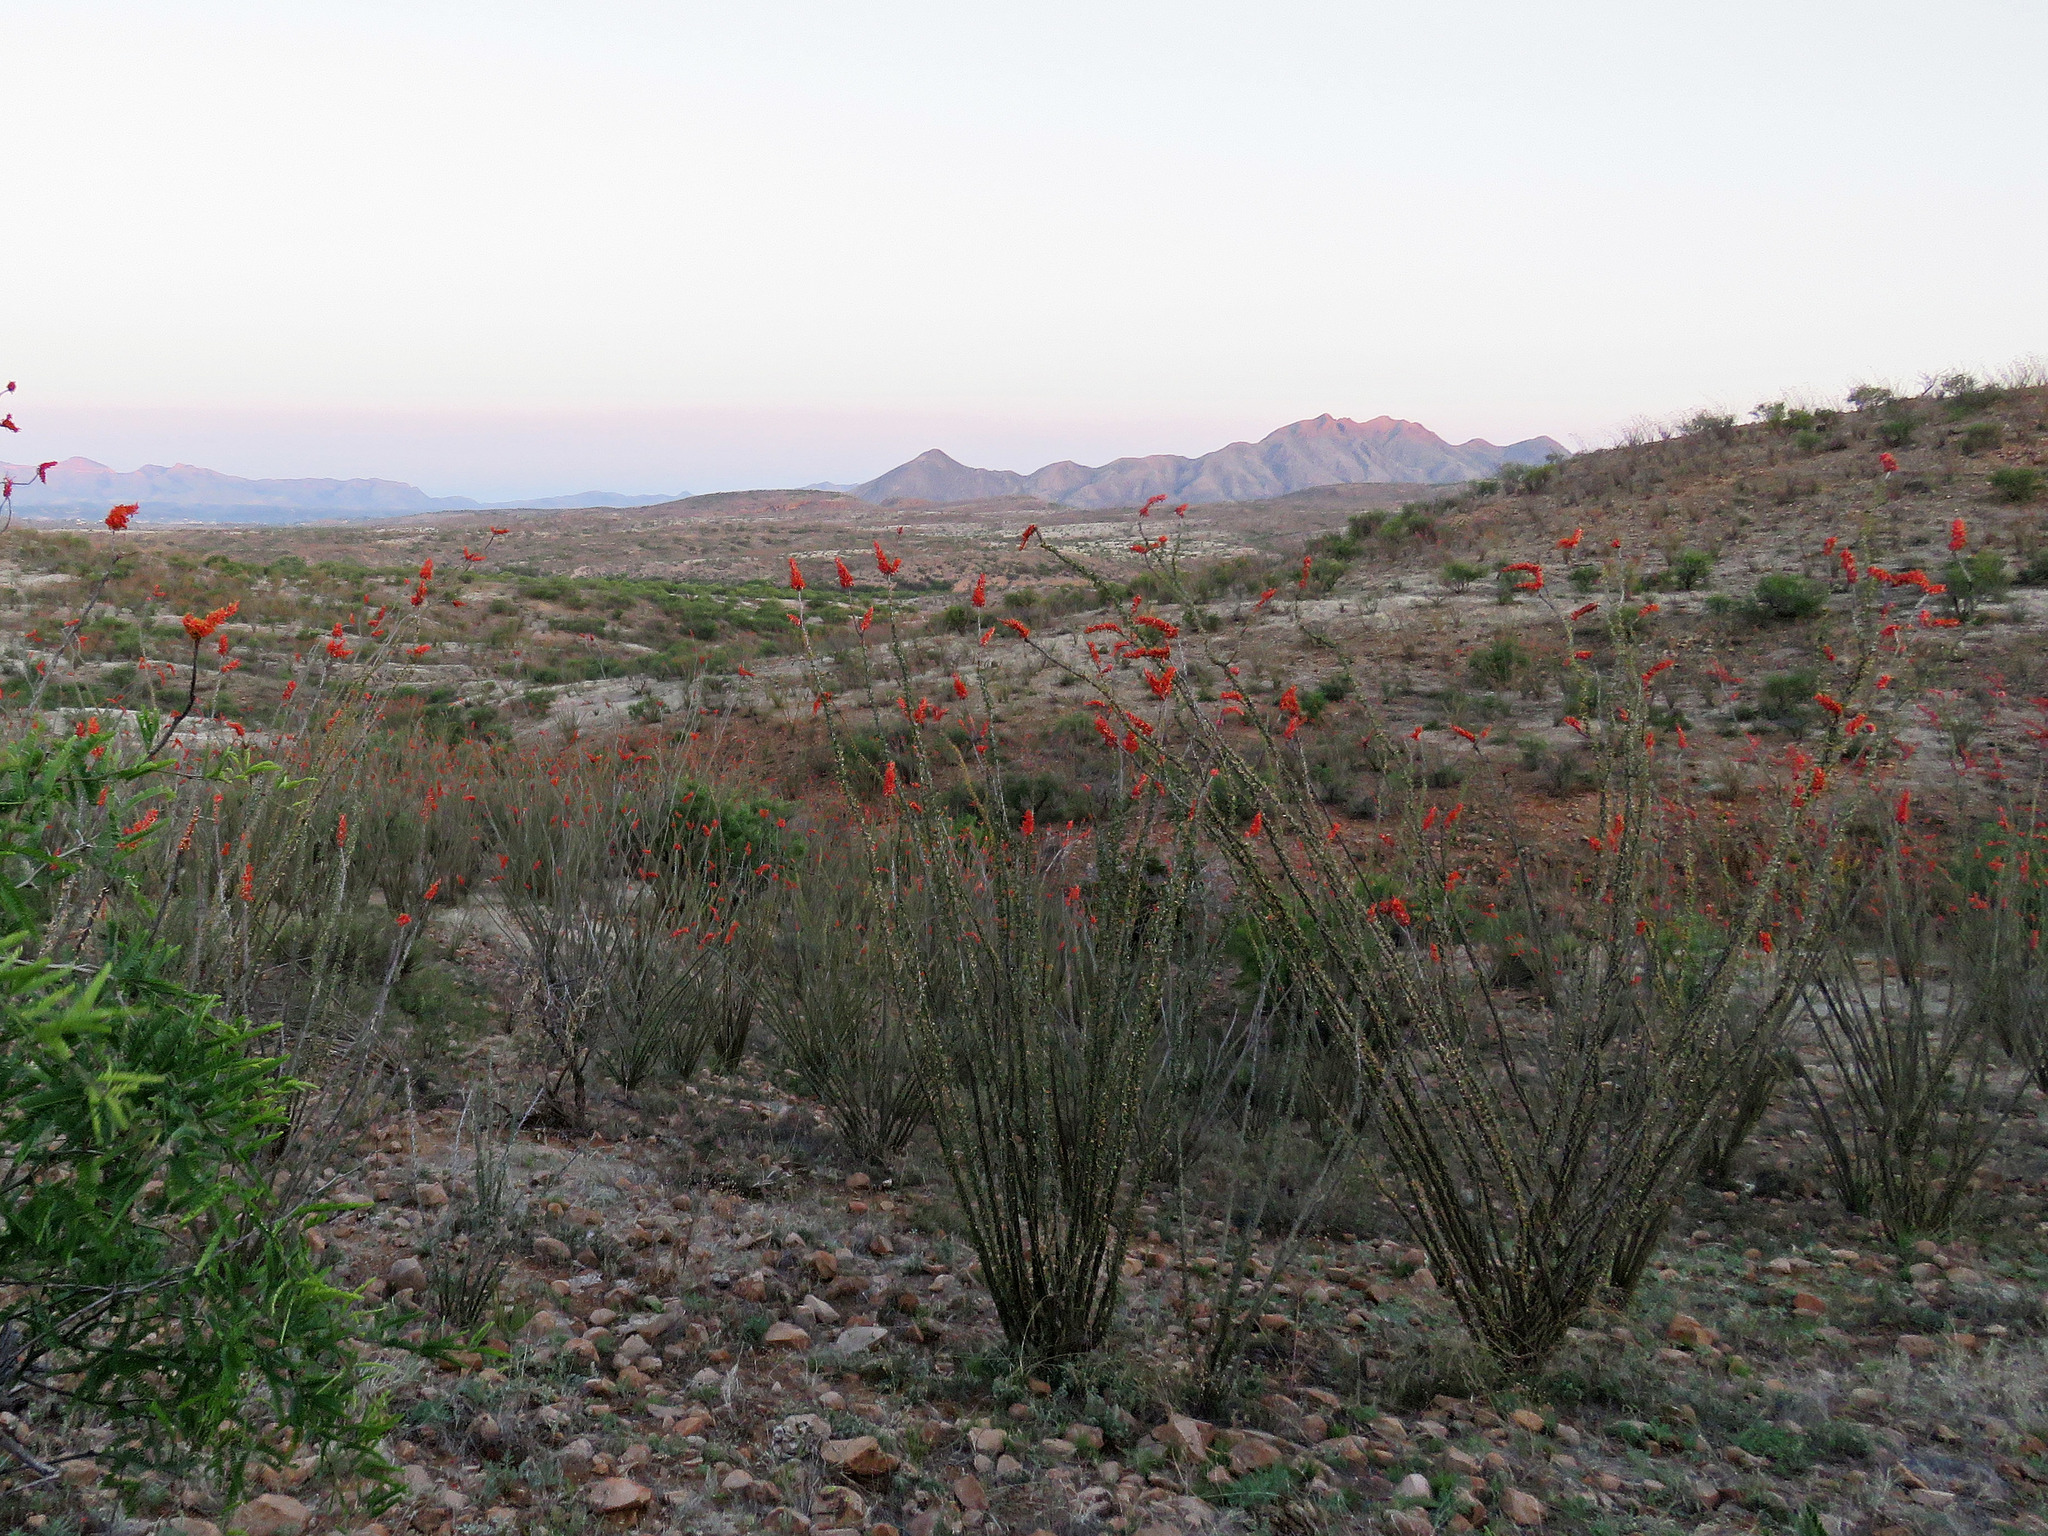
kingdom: Plantae
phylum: Tracheophyta
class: Magnoliopsida
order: Ericales
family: Fouquieriaceae
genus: Fouquieria
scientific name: Fouquieria splendens
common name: Vine-cactus
